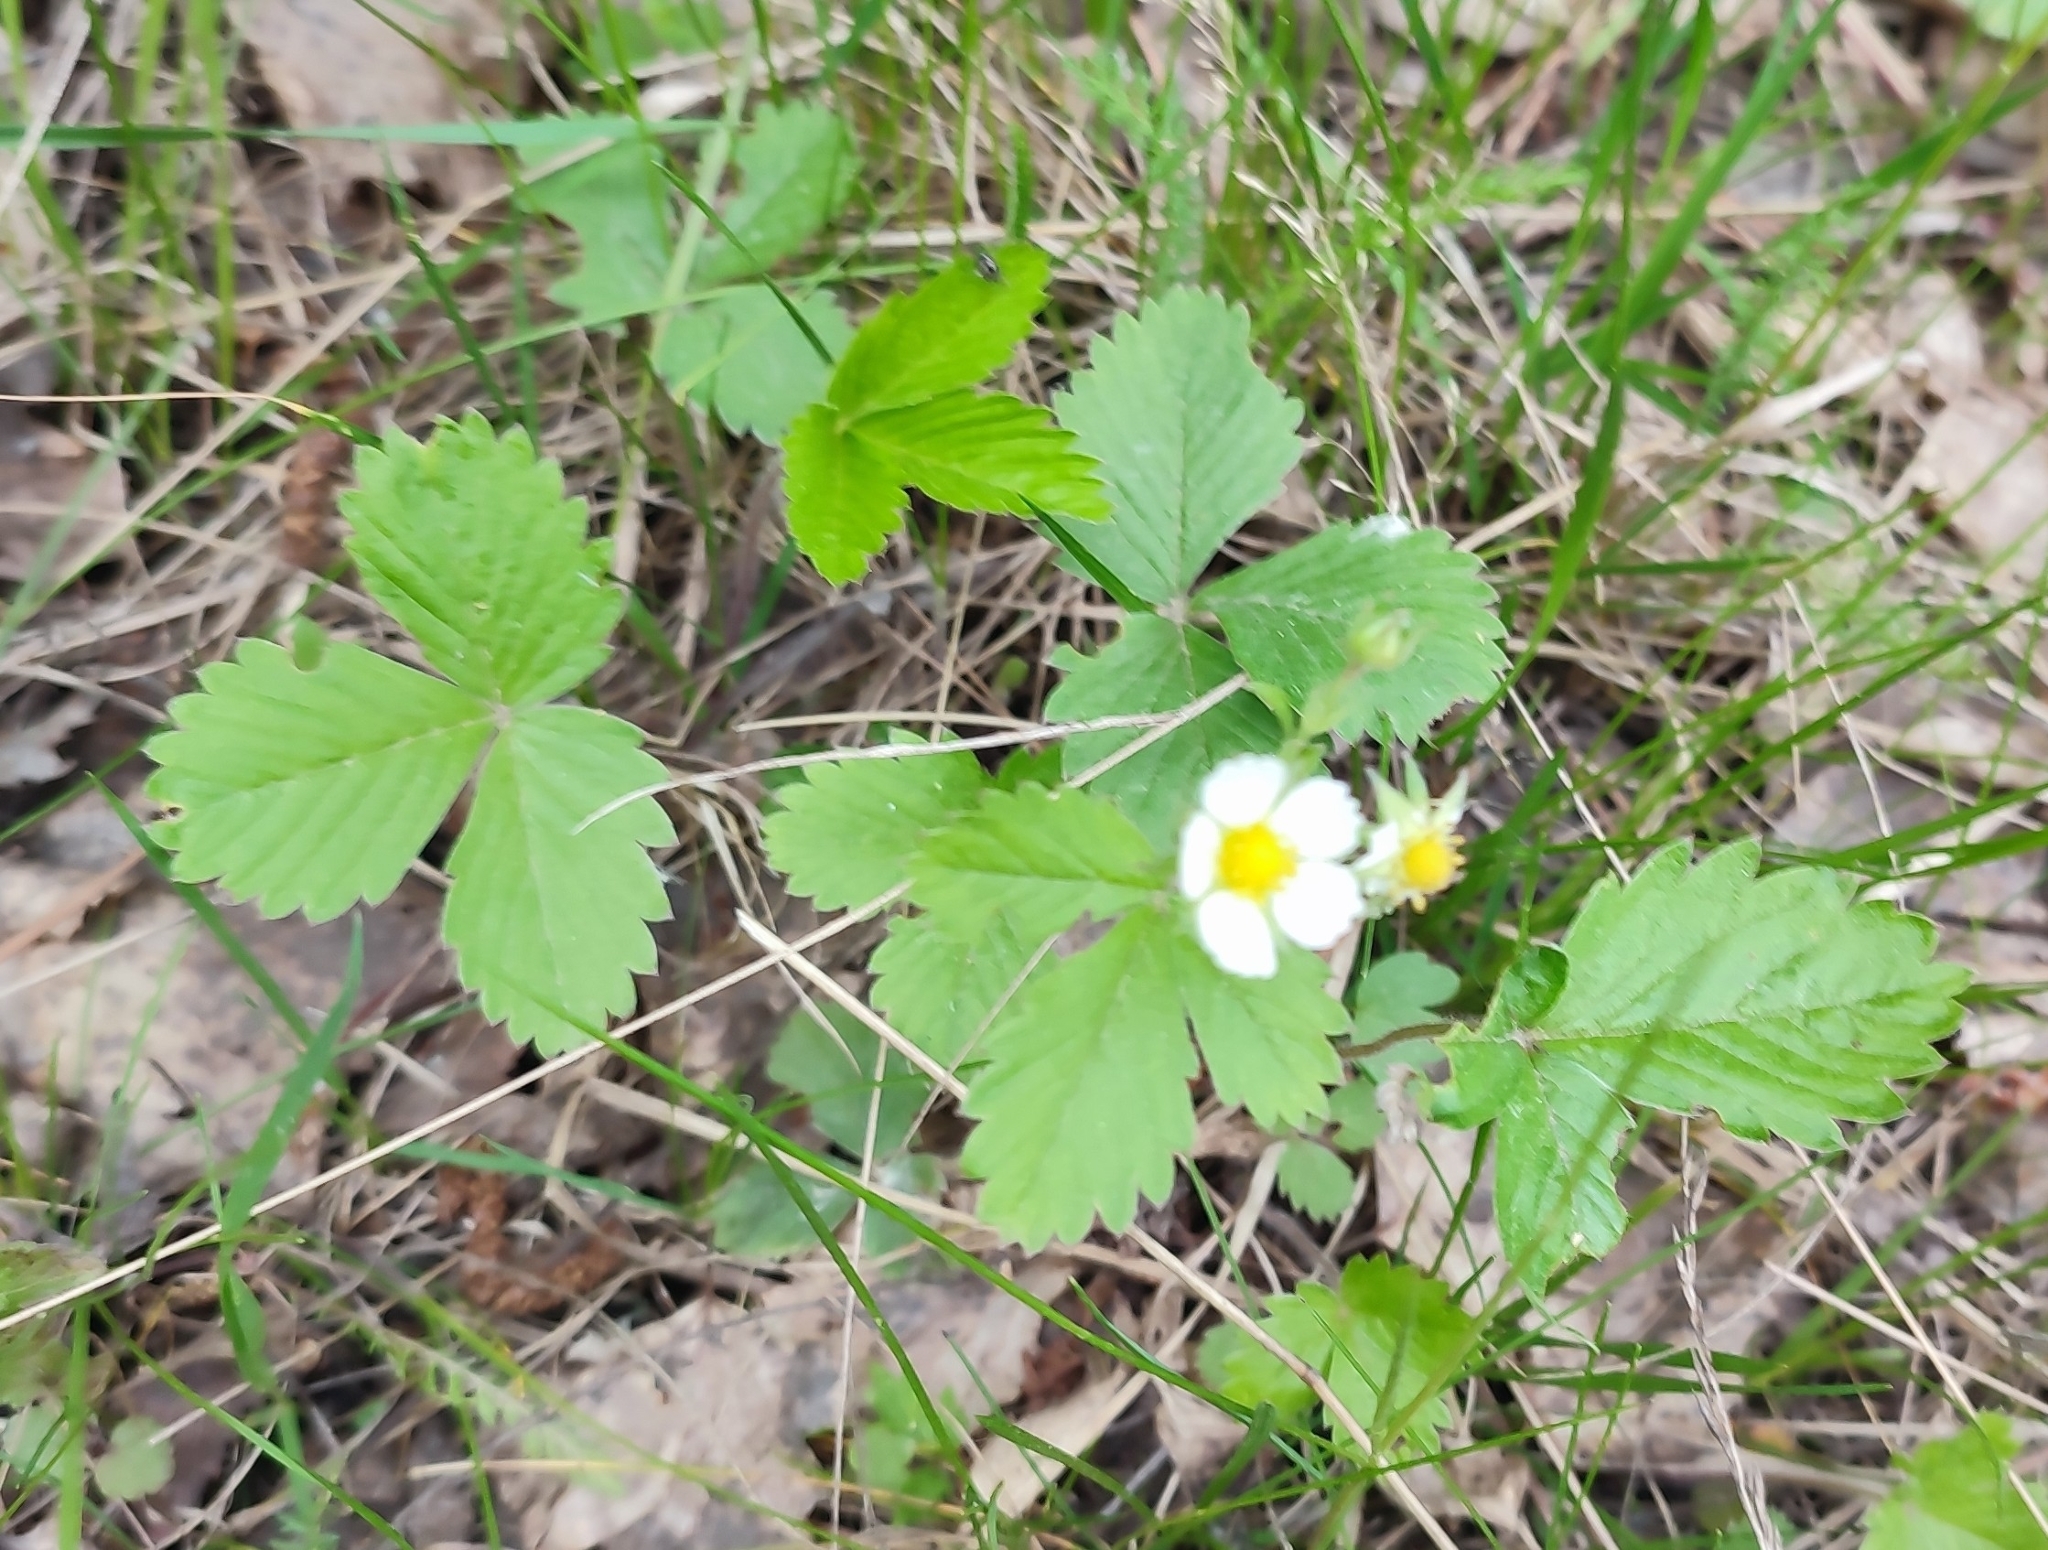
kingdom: Plantae
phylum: Tracheophyta
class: Magnoliopsida
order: Rosales
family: Rosaceae
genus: Fragaria
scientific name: Fragaria vesca
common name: Wild strawberry
